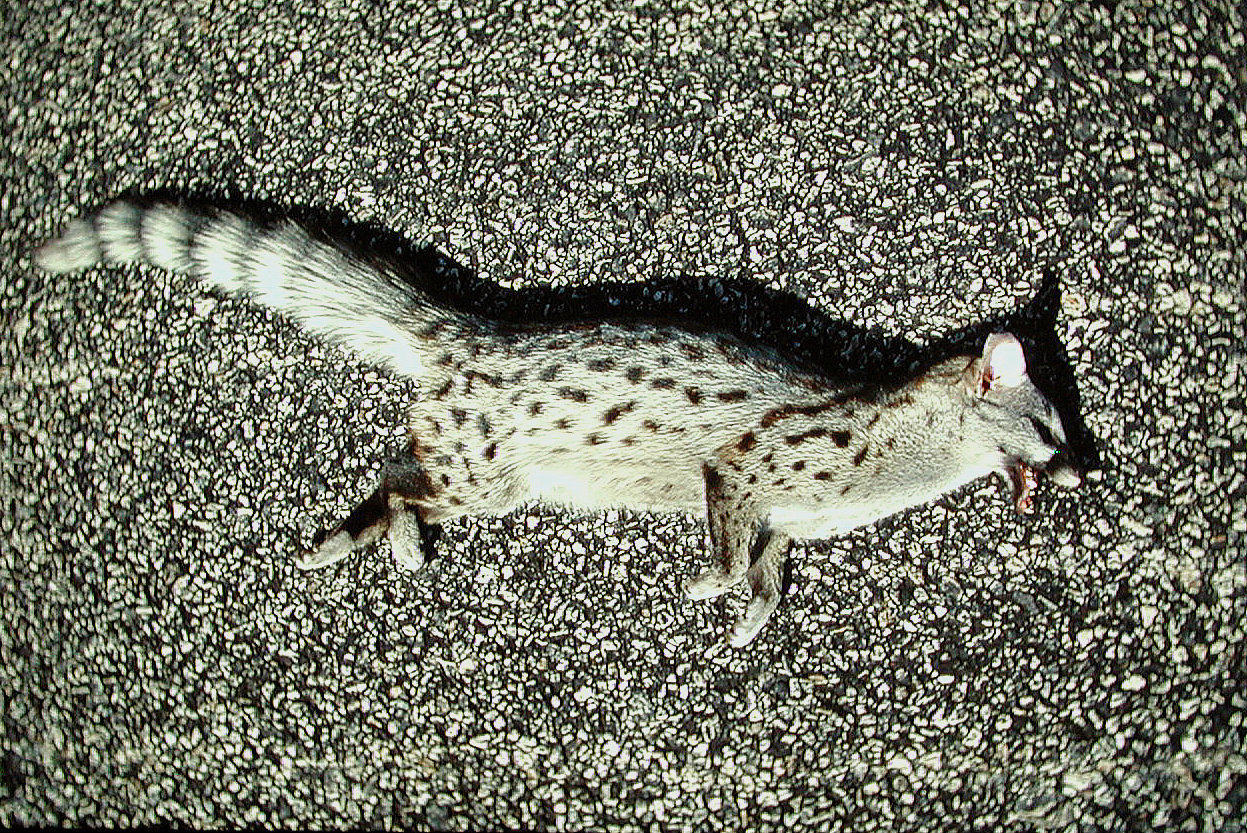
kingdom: Animalia
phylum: Chordata
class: Mammalia
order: Carnivora
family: Viverridae
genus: Genetta
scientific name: Genetta genetta
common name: Common genet
